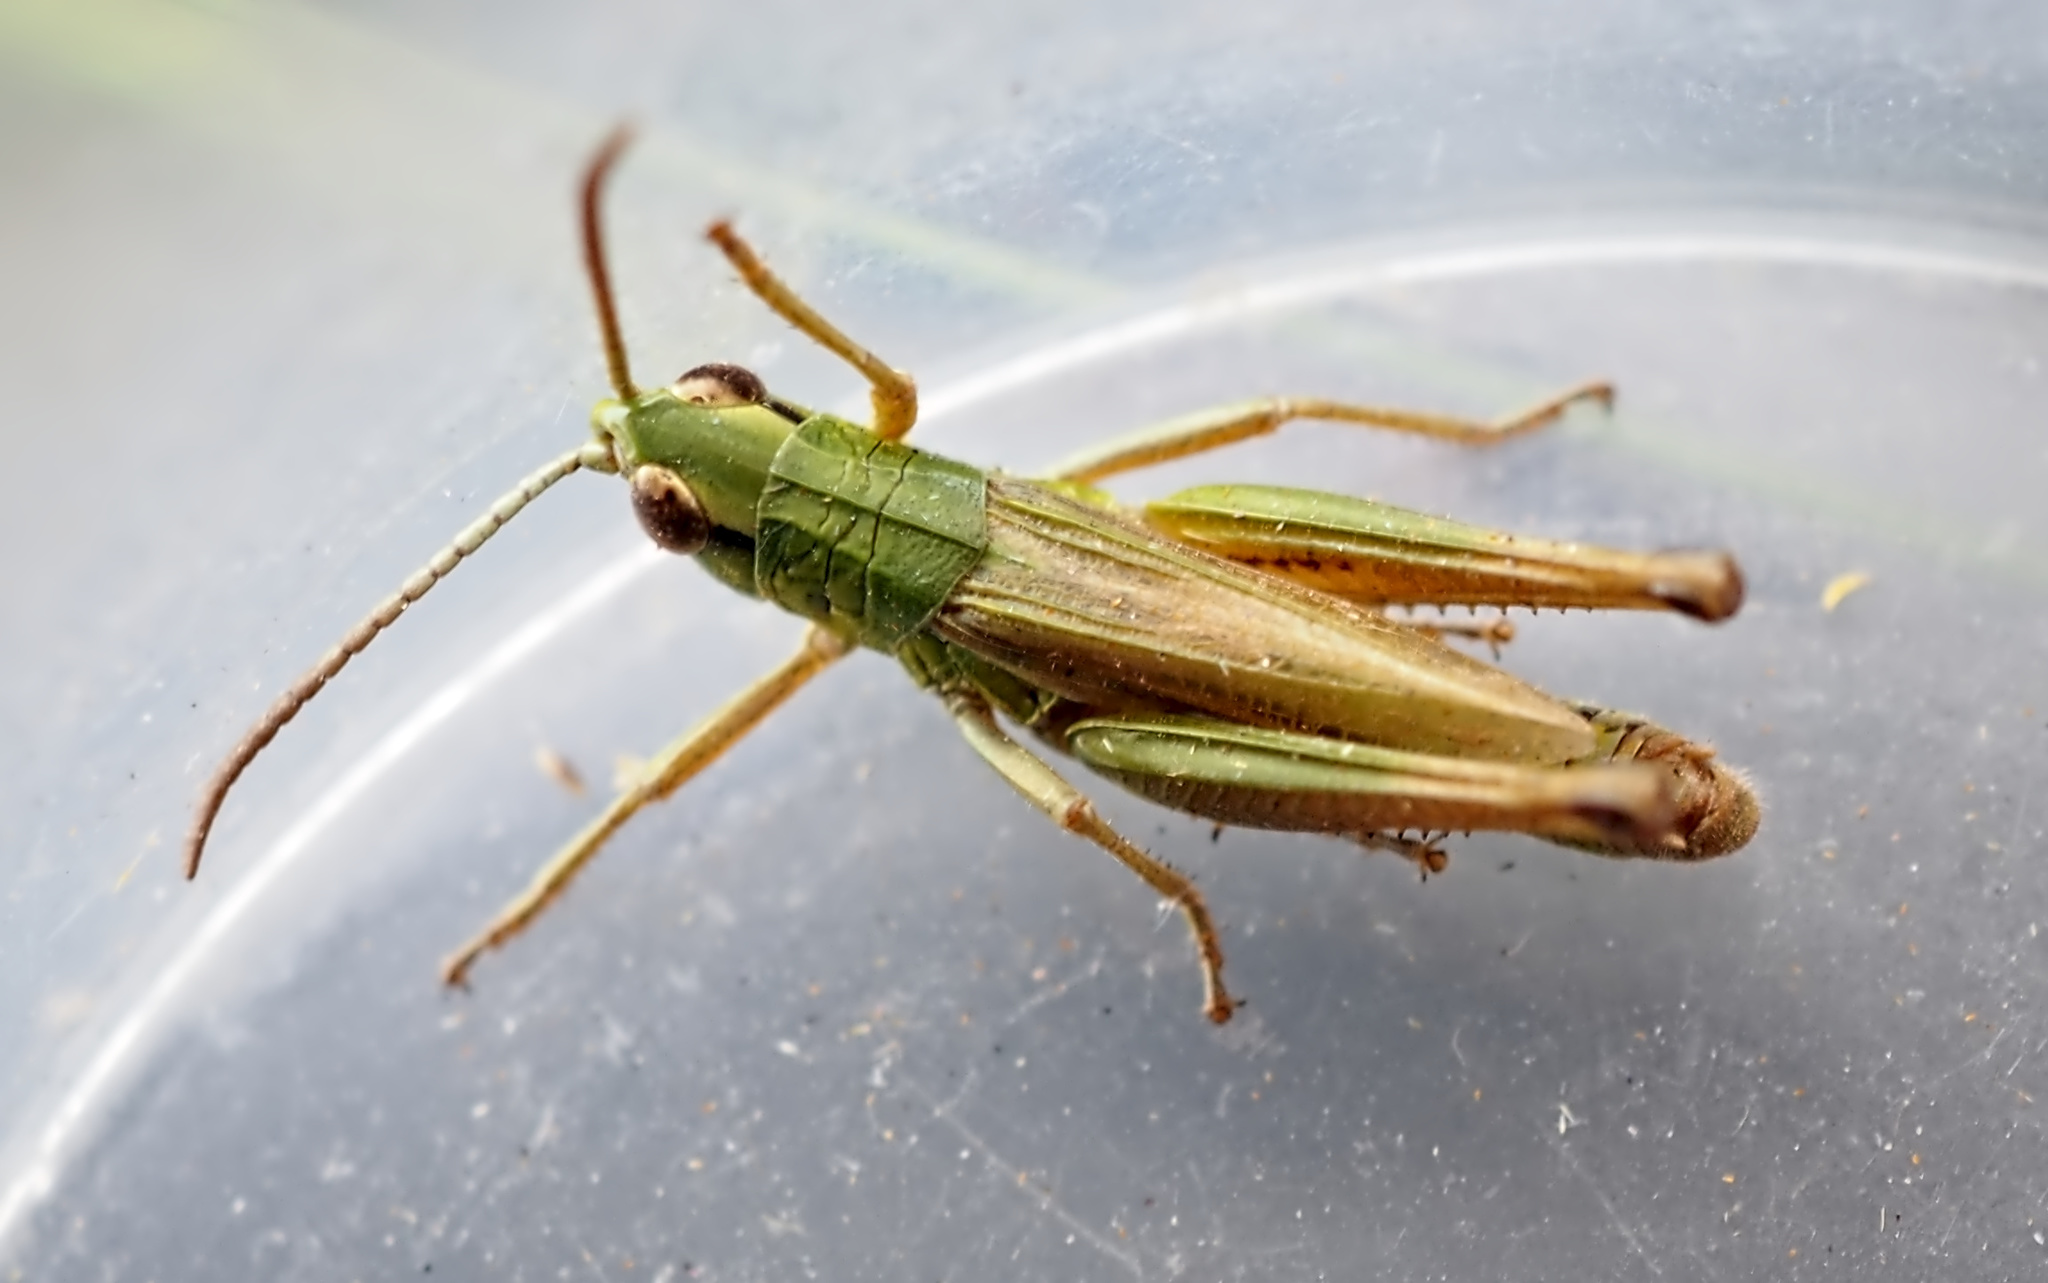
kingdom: Animalia
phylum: Arthropoda
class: Insecta
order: Orthoptera
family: Acrididae
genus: Pseudochorthippus
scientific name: Pseudochorthippus parallelus
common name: Meadow grasshopper
